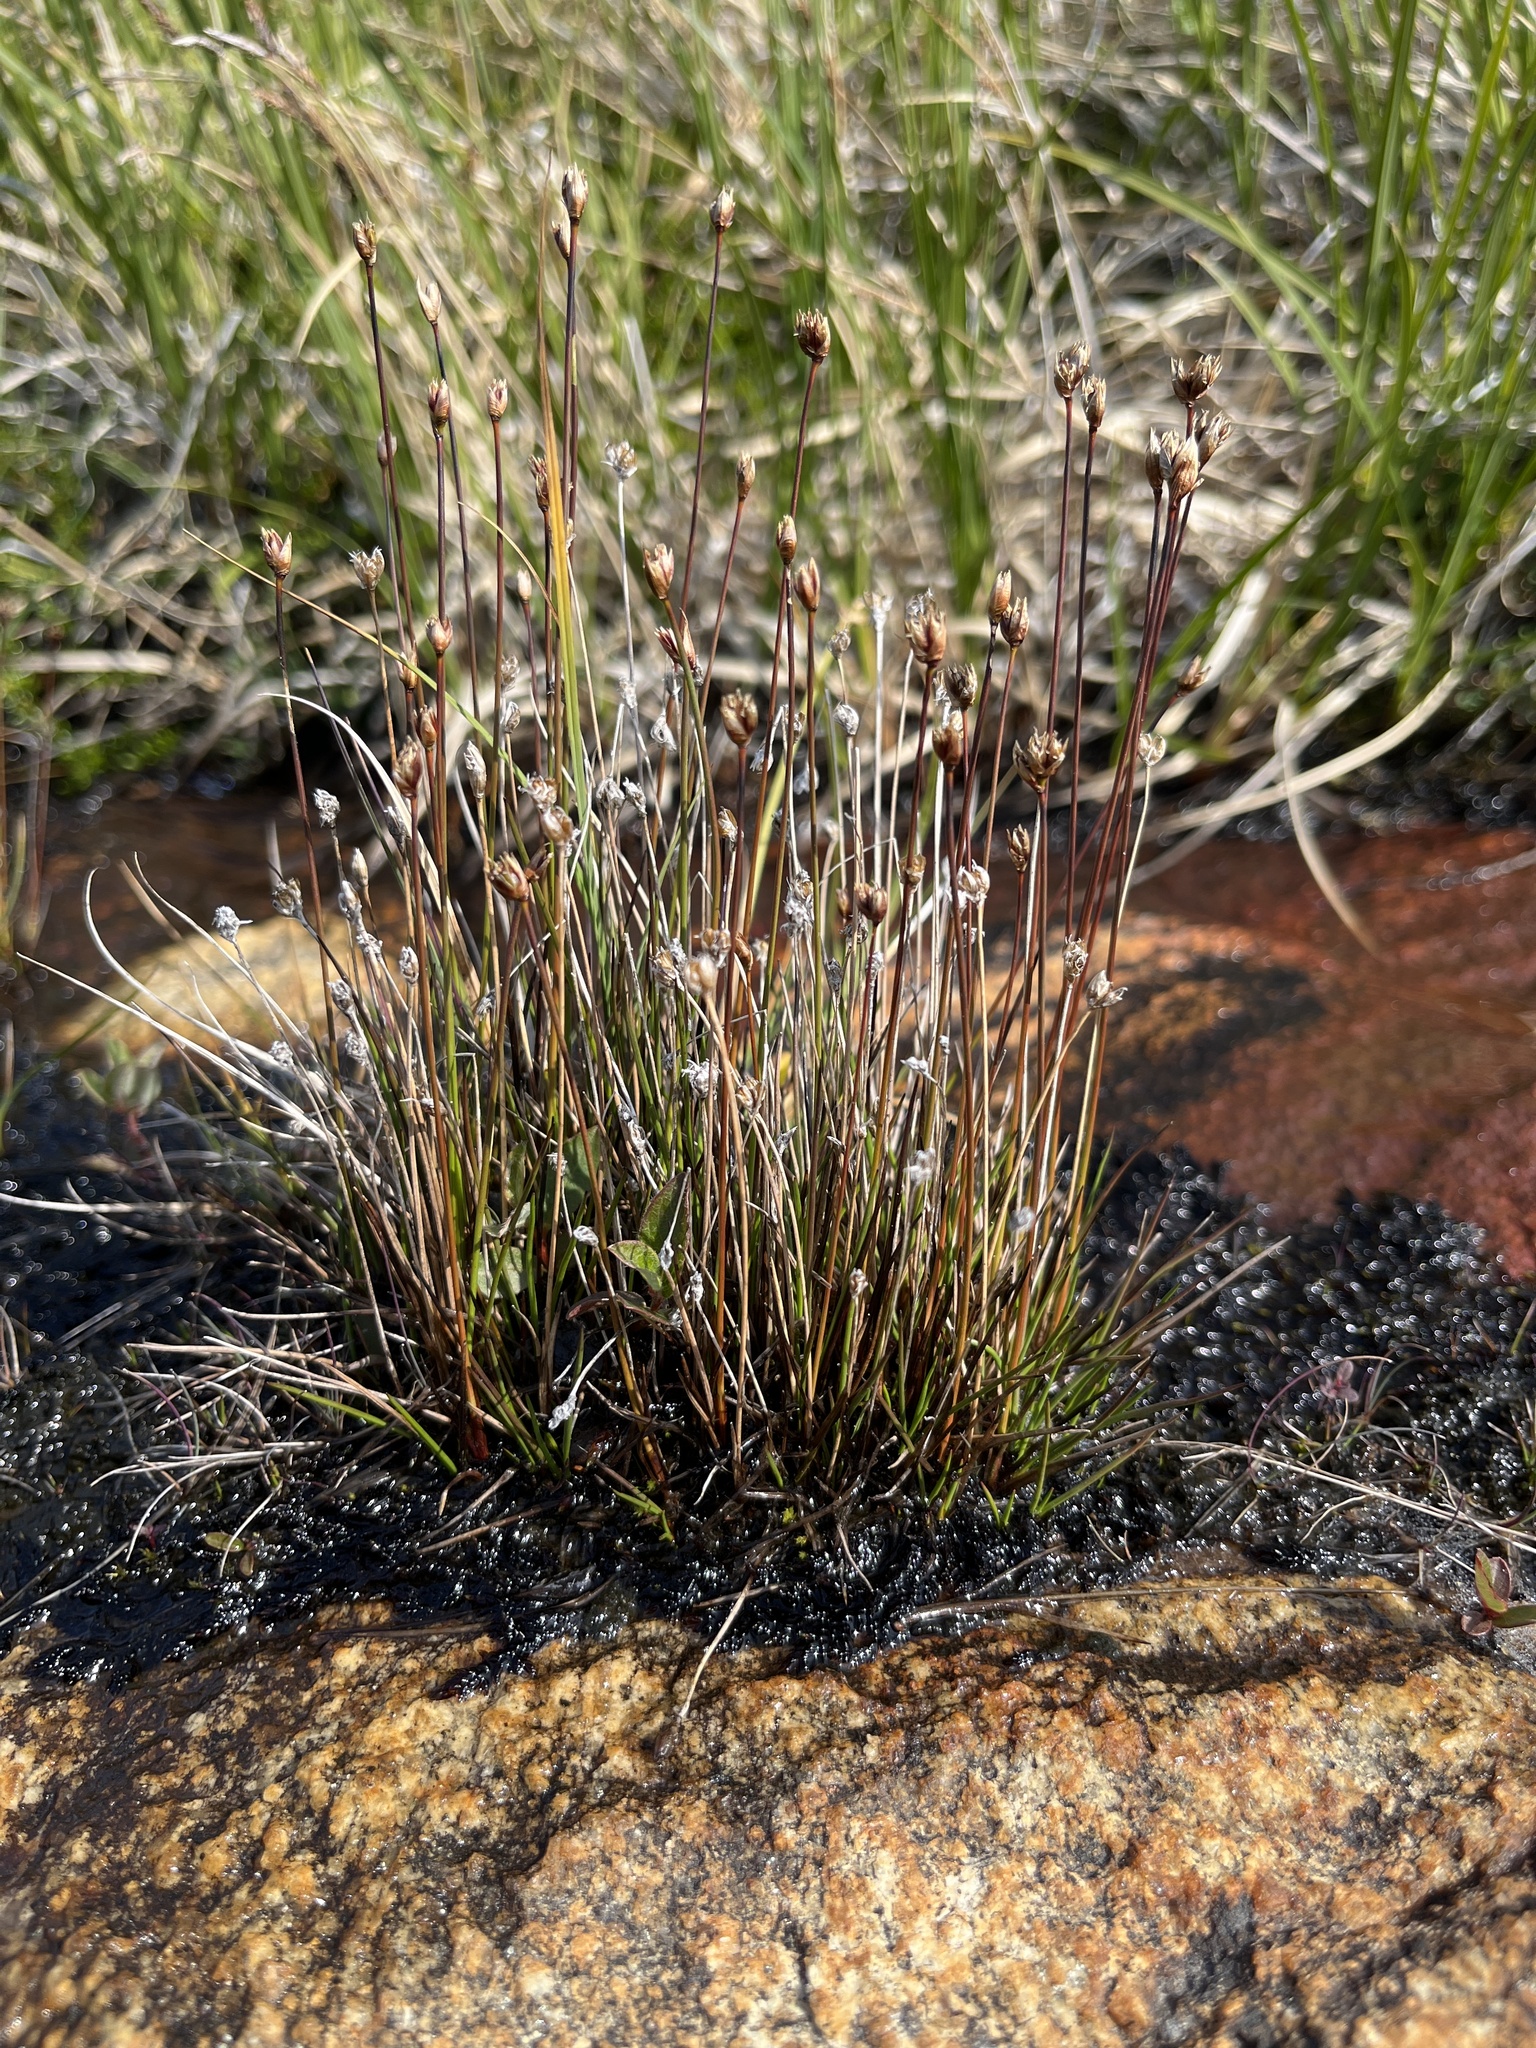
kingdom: Plantae
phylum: Tracheophyta
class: Liliopsida
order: Poales
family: Juncaceae
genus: Juncus
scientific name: Juncus biglumis
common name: Two-flowered rush
